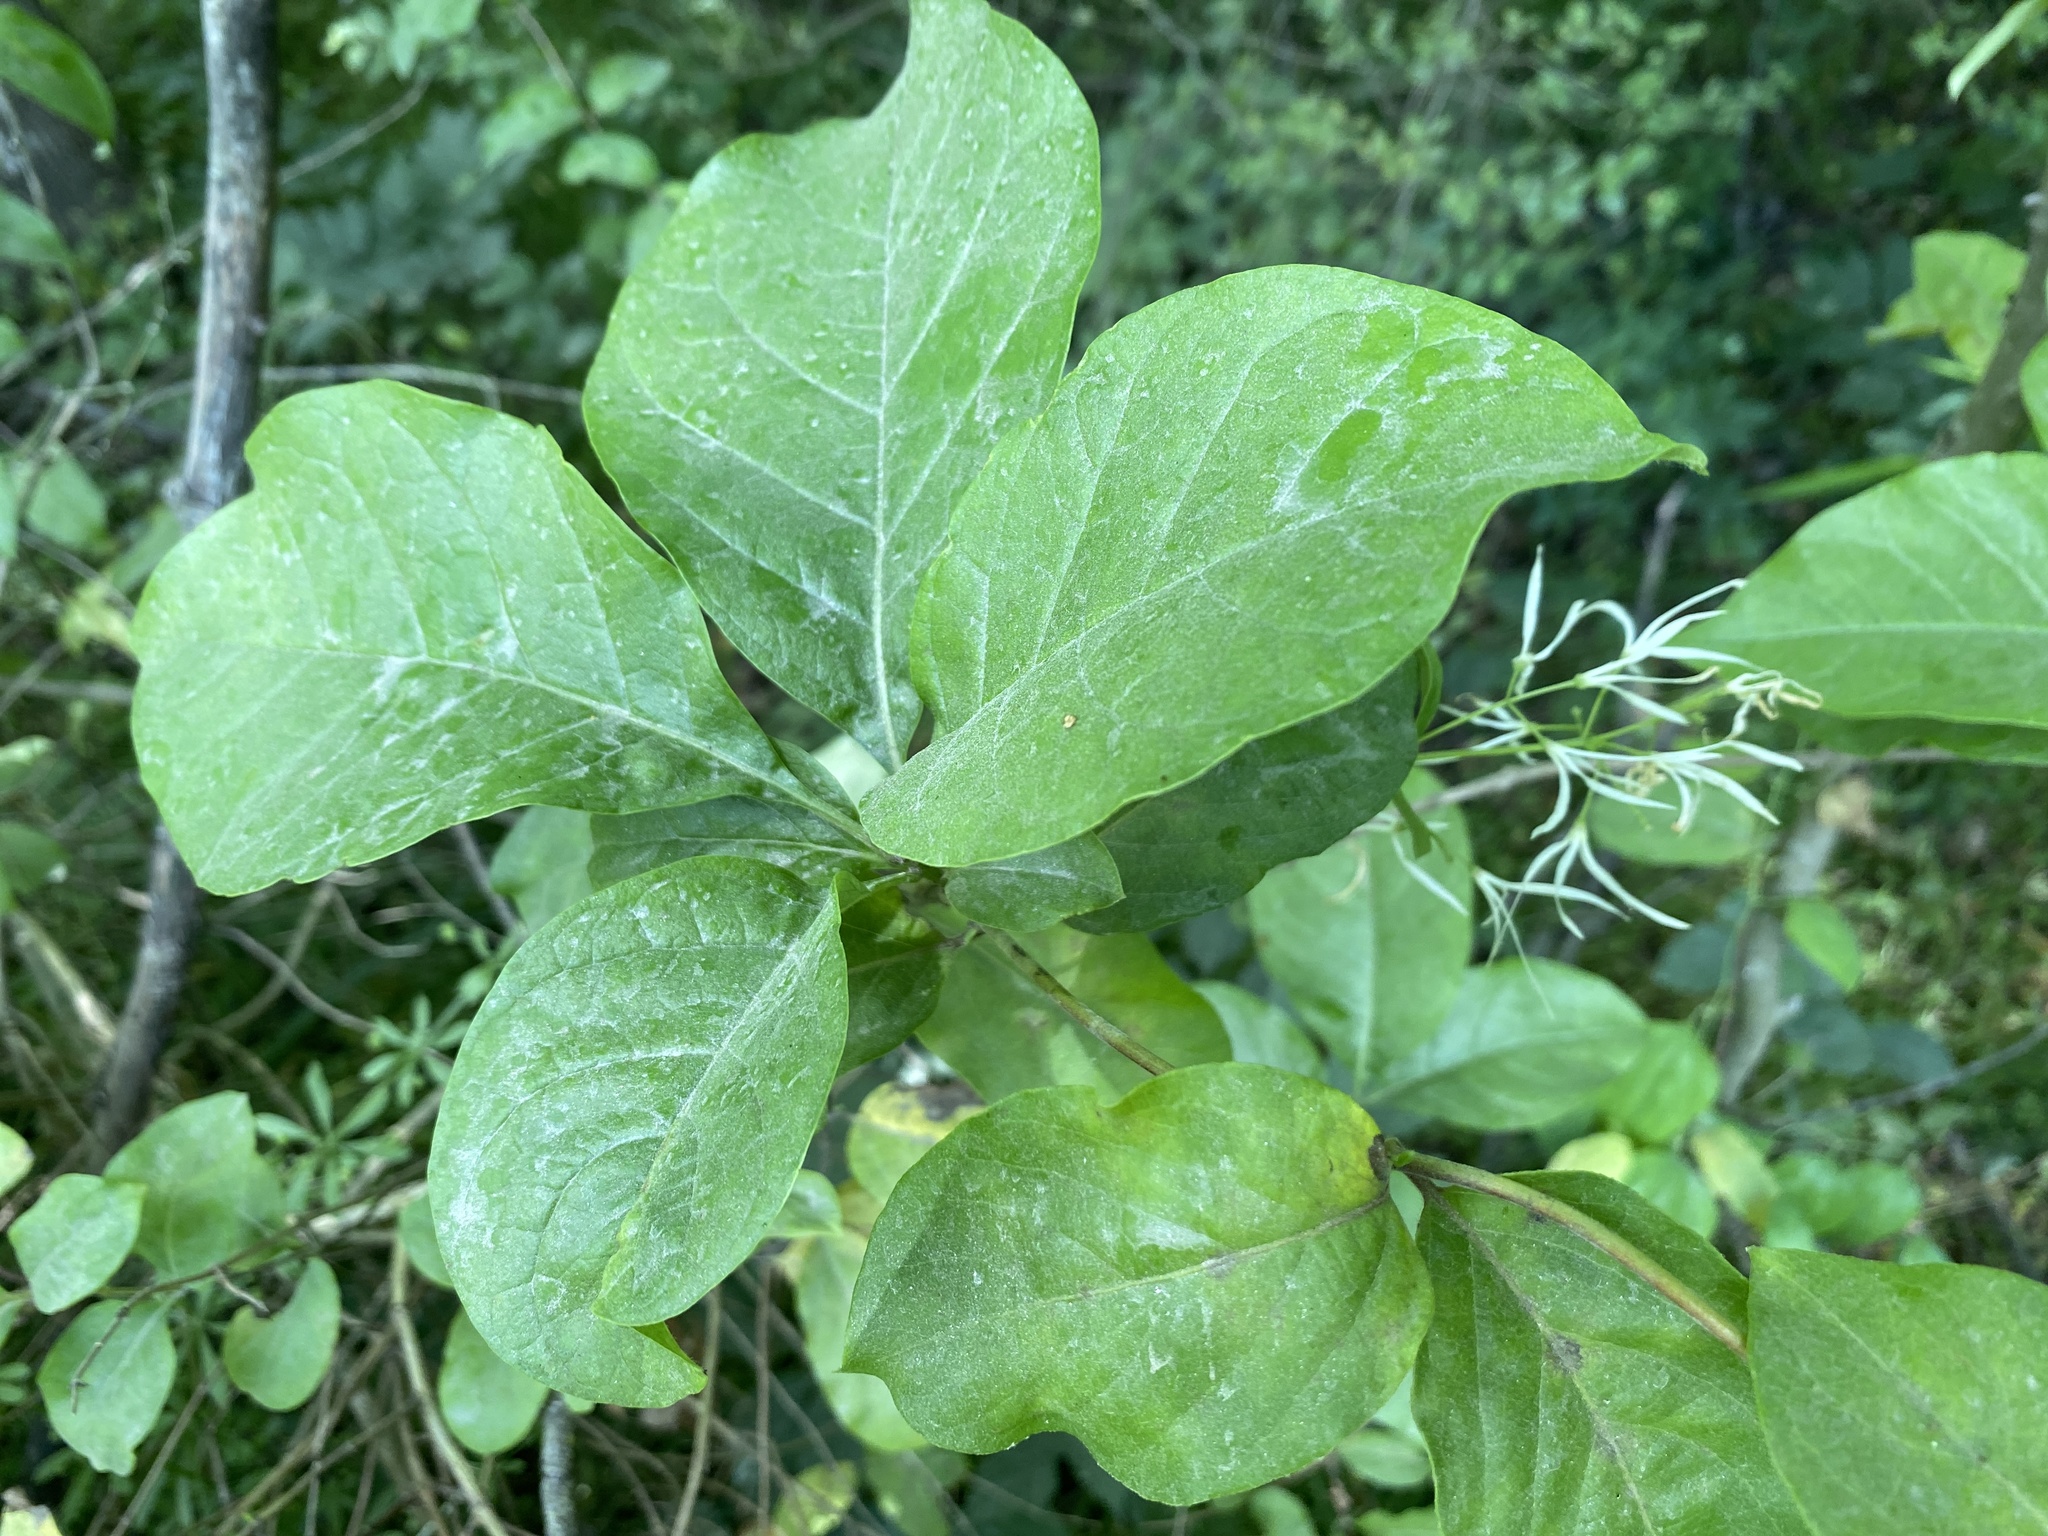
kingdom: Plantae
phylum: Tracheophyta
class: Magnoliopsida
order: Lamiales
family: Oleaceae
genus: Chionanthus
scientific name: Chionanthus virginicus
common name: American fringetree
